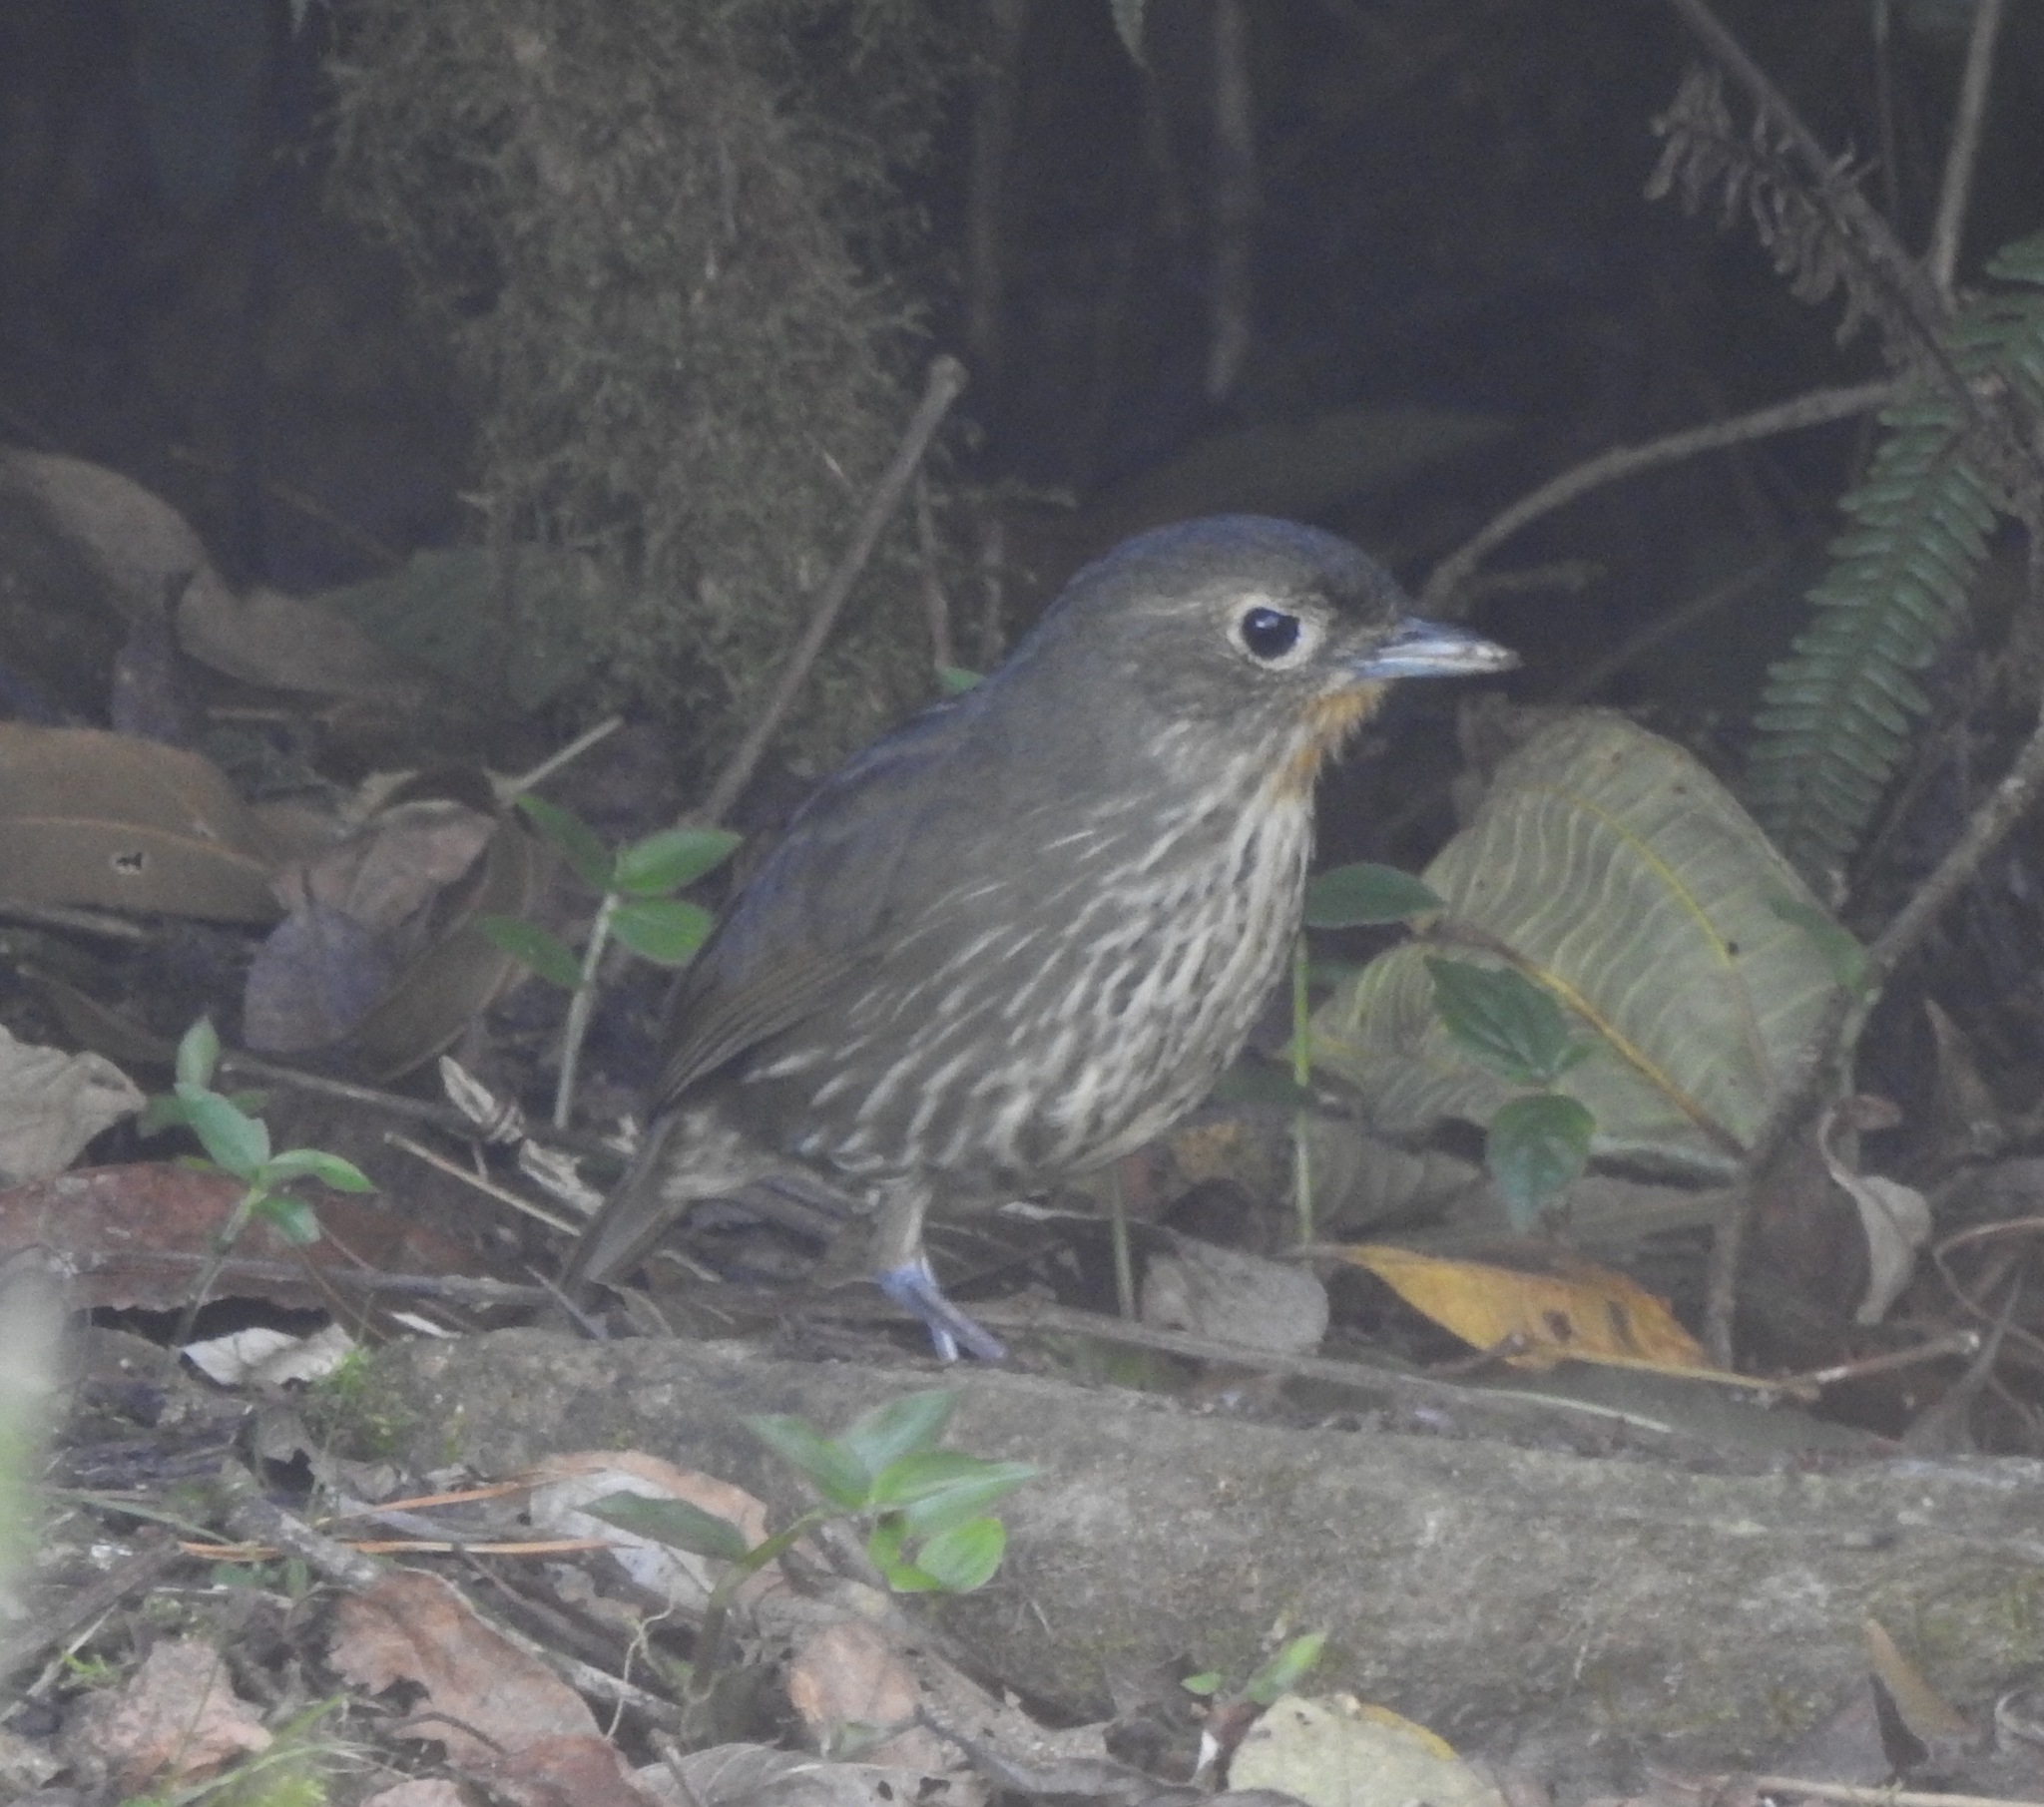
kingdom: Animalia
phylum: Chordata
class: Aves
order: Passeriformes
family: Grallariidae
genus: Grallaria
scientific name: Grallaria bangsi
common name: Santa marta antpitta
